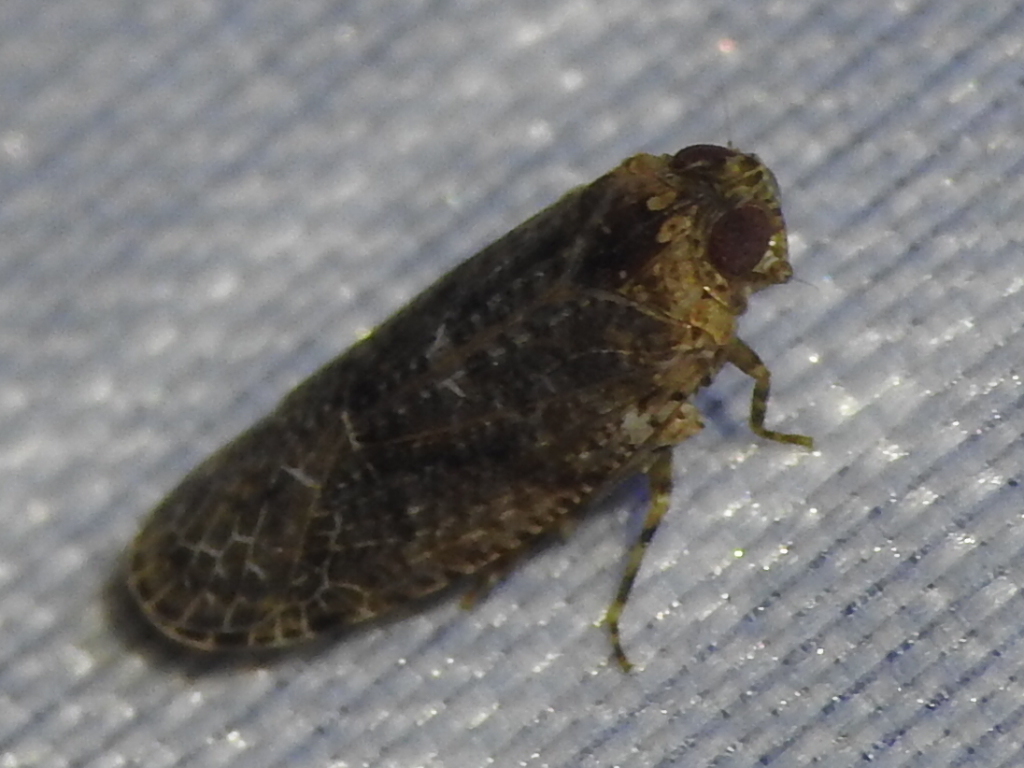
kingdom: Animalia
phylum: Arthropoda
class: Insecta
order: Hemiptera
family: Achilidae
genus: Catonia
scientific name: Catonia nava
